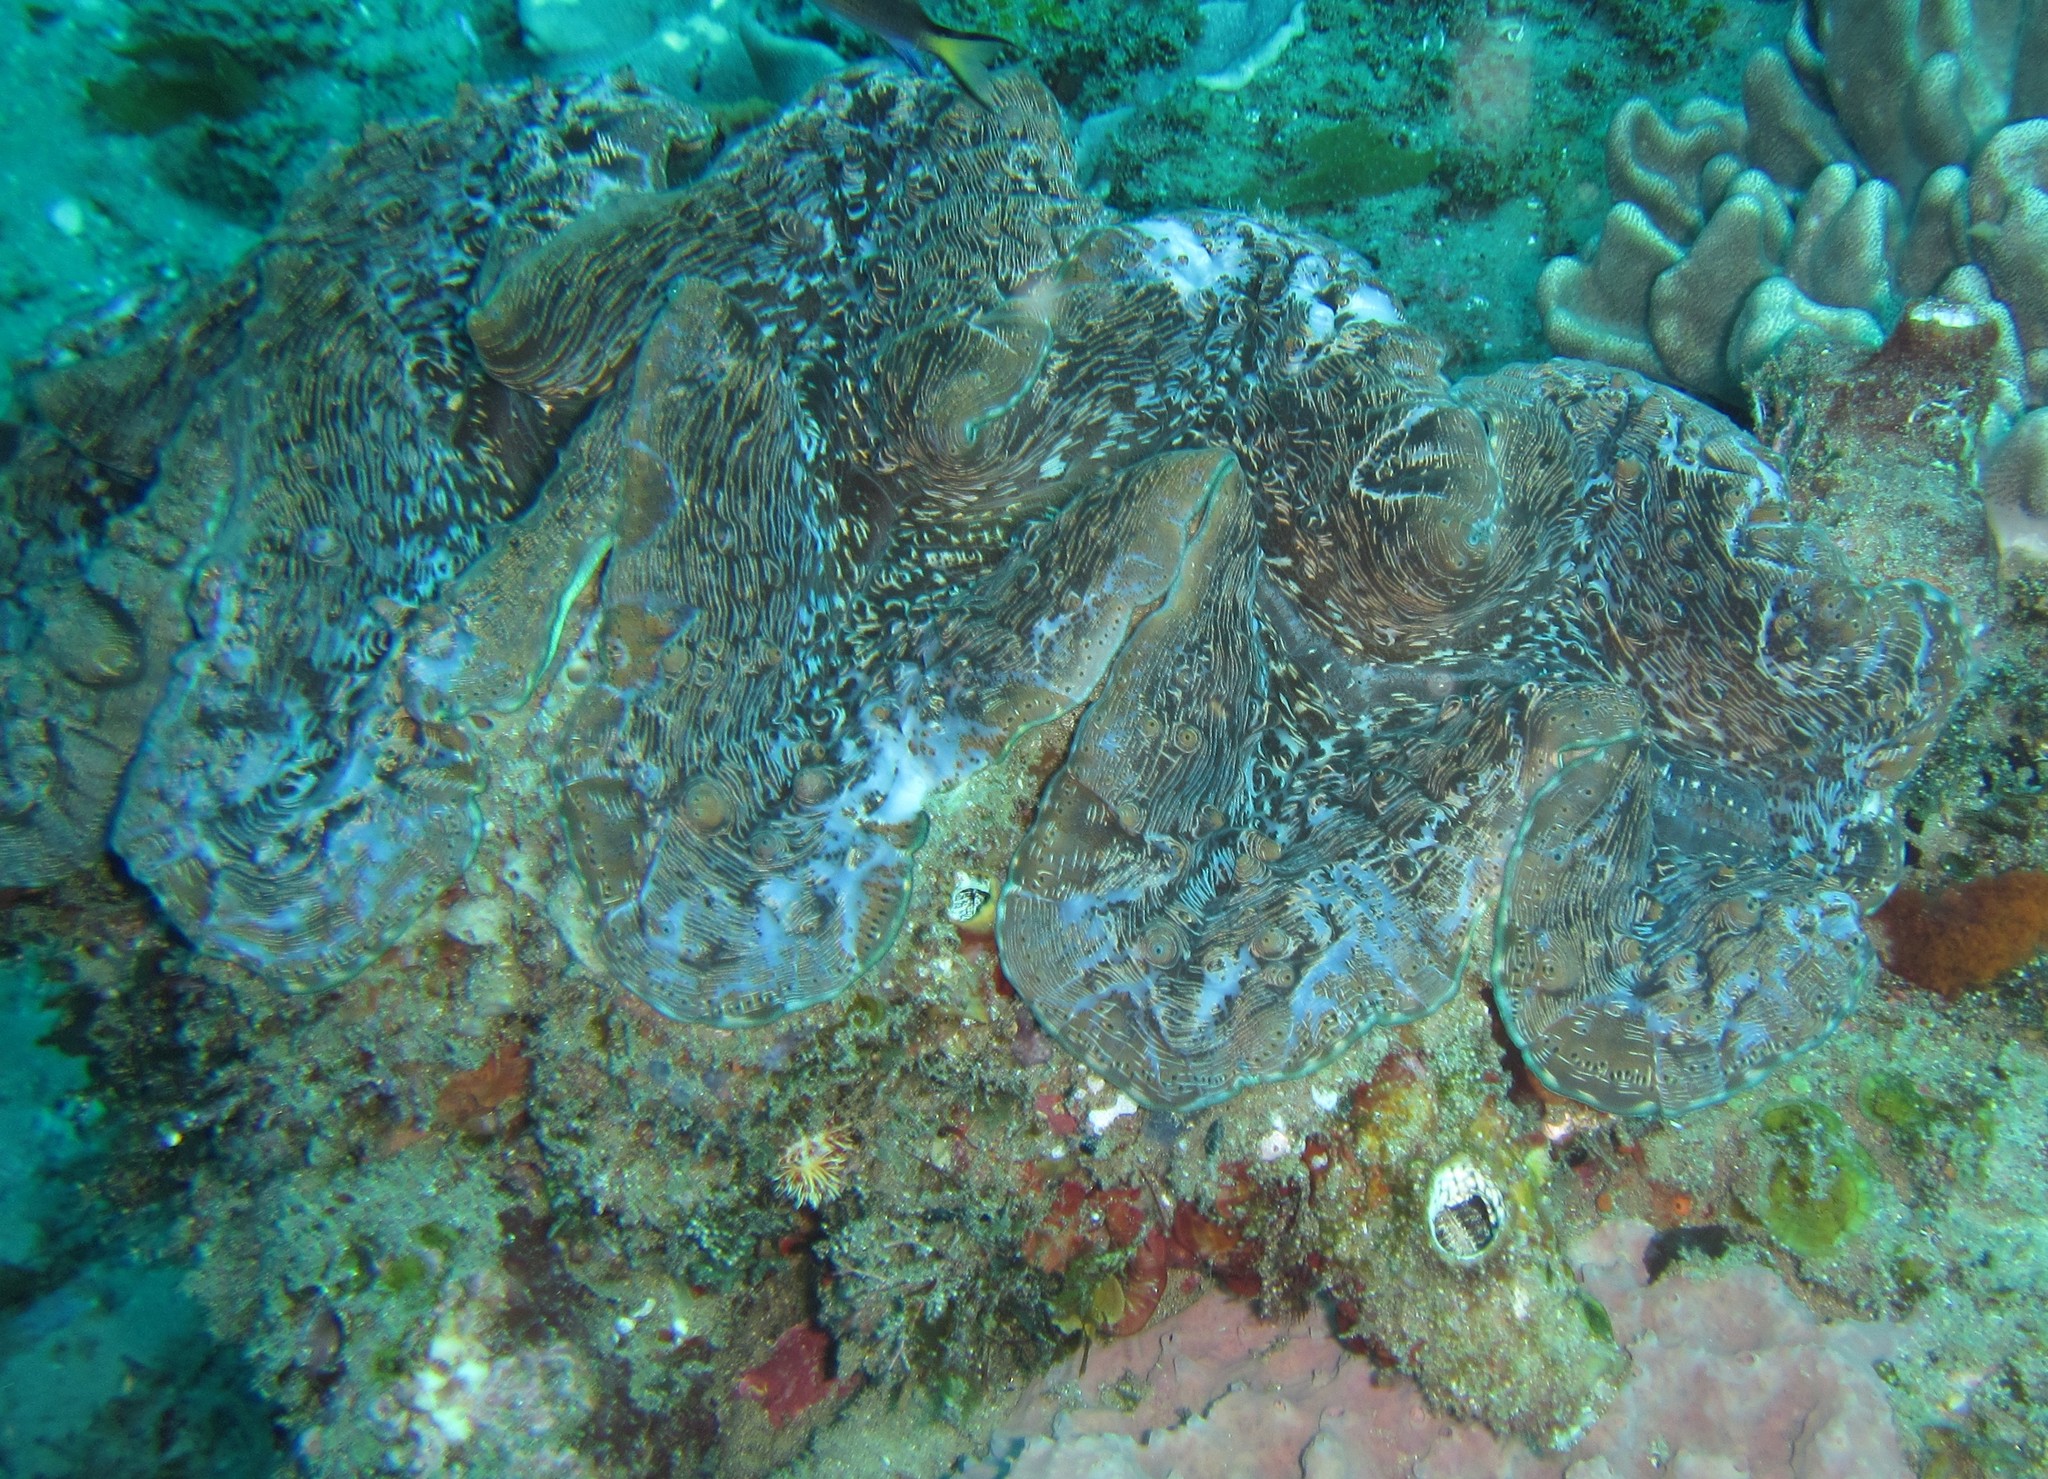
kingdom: Animalia
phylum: Mollusca
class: Bivalvia
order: Cardiida
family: Cardiidae
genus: Tridacna
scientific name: Tridacna elongatissima
